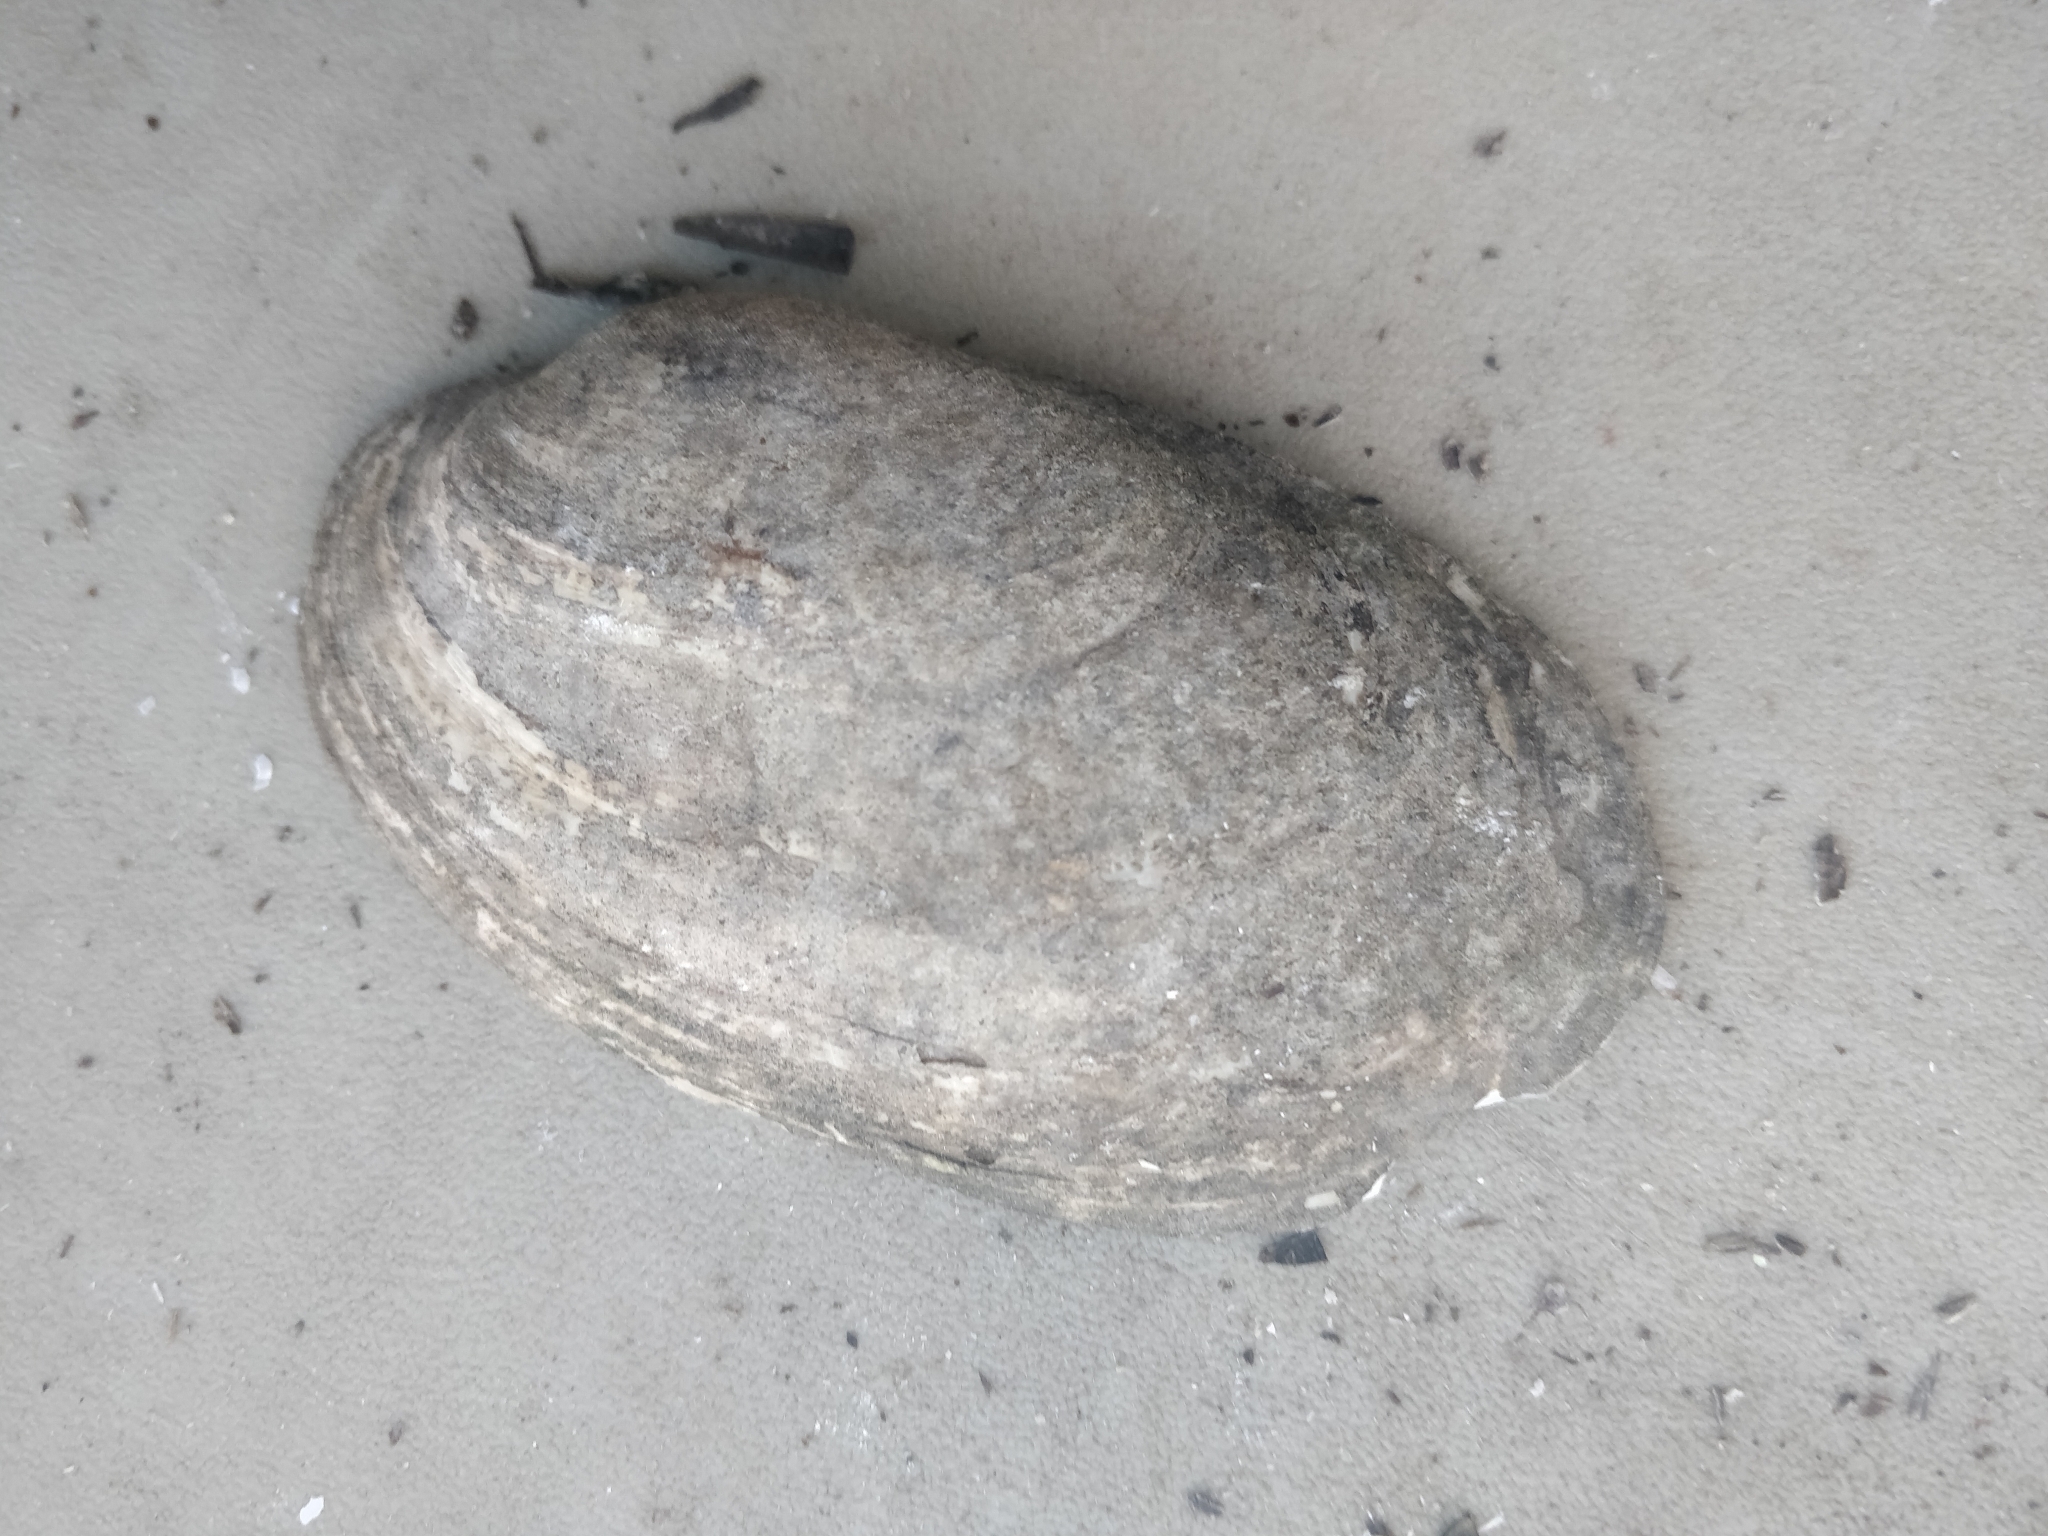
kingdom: Animalia
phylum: Mollusca
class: Bivalvia
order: Unionida
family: Unionidae
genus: Lampsilis
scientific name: Lampsilis siliquoidea
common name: Fatmucket
